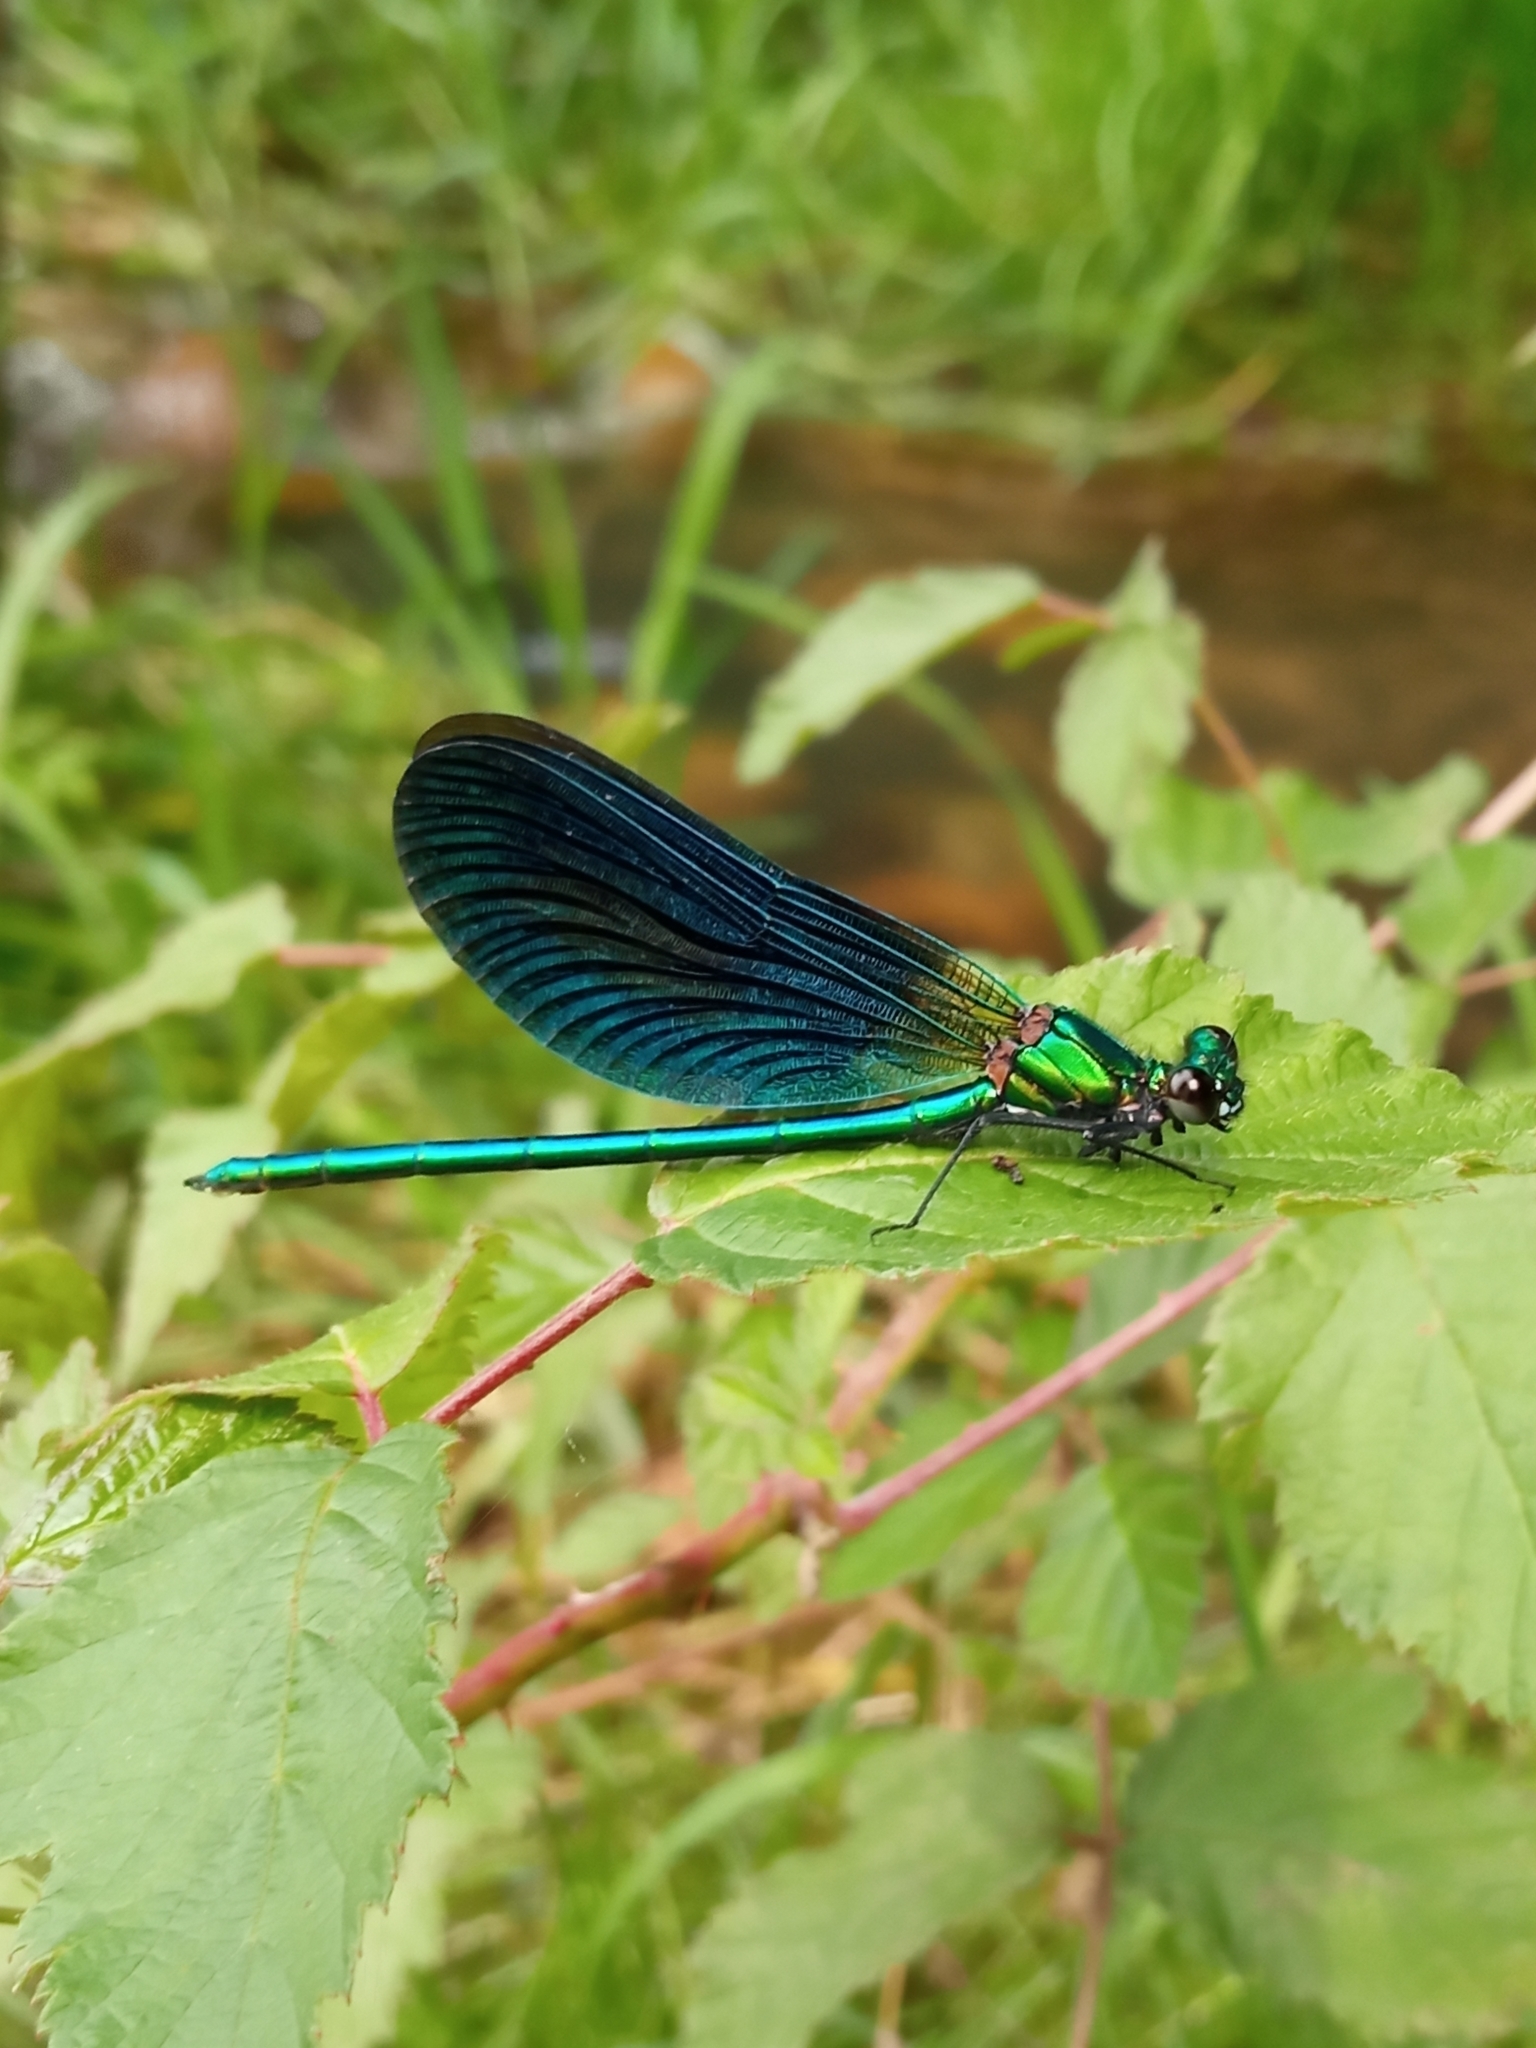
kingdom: Animalia
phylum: Arthropoda
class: Insecta
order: Odonata
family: Calopterygidae
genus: Calopteryx
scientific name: Calopteryx virgo
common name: Beautiful demoiselle
